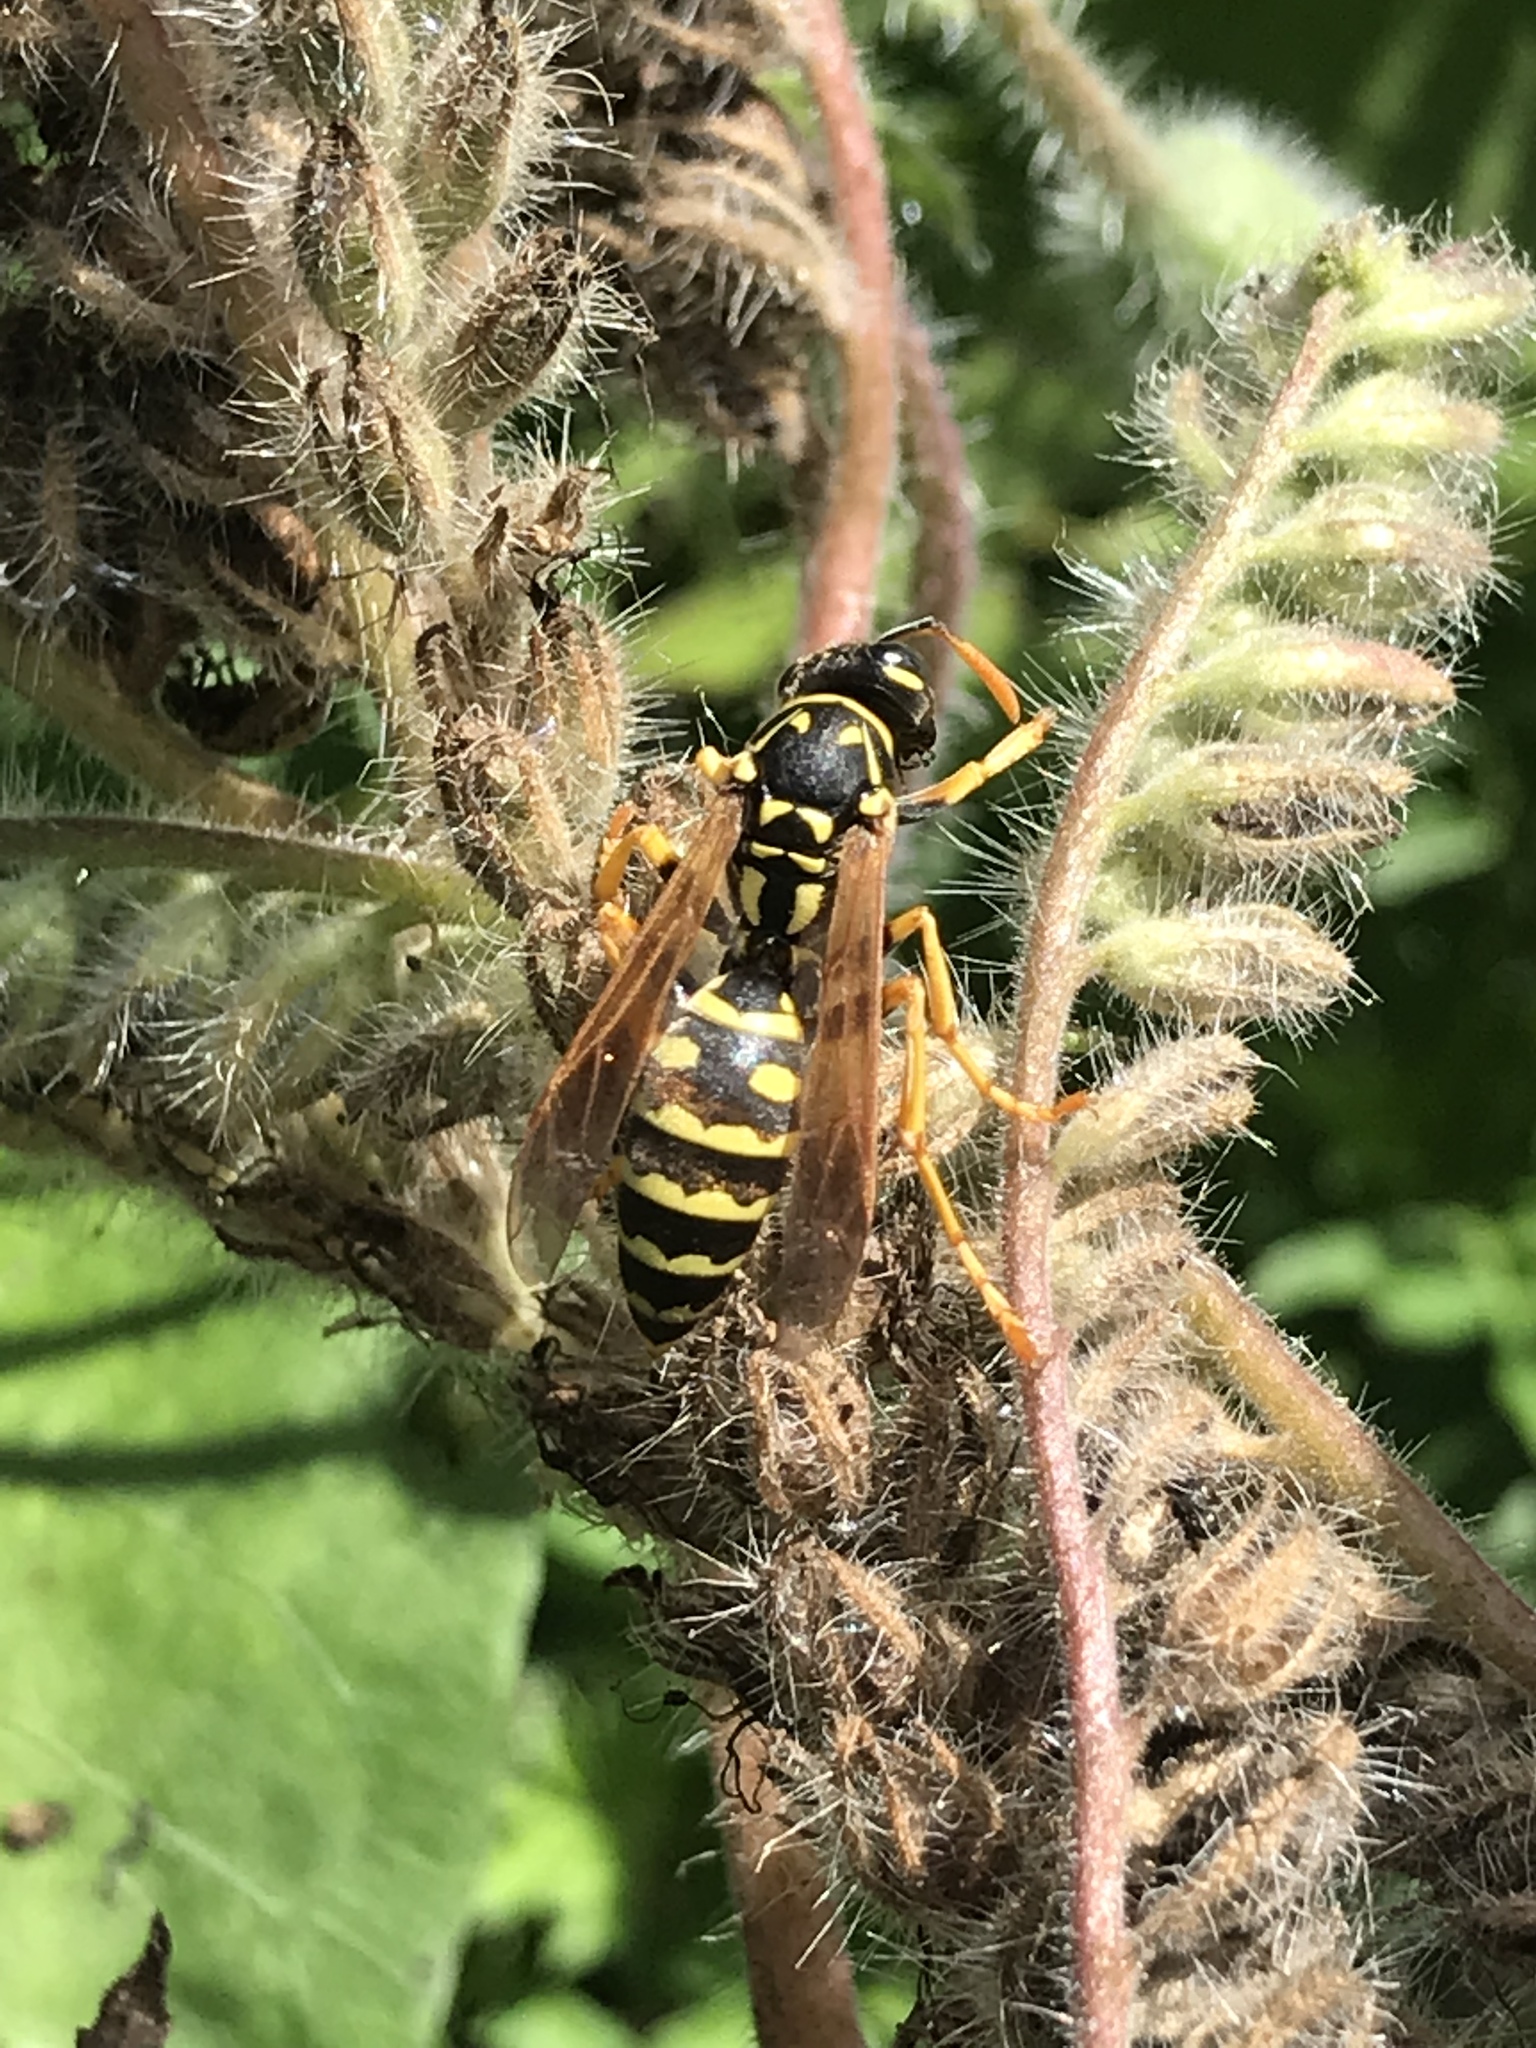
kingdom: Animalia
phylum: Arthropoda
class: Insecta
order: Hymenoptera
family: Eumenidae
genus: Polistes
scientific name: Polistes dominula
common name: Paper wasp
